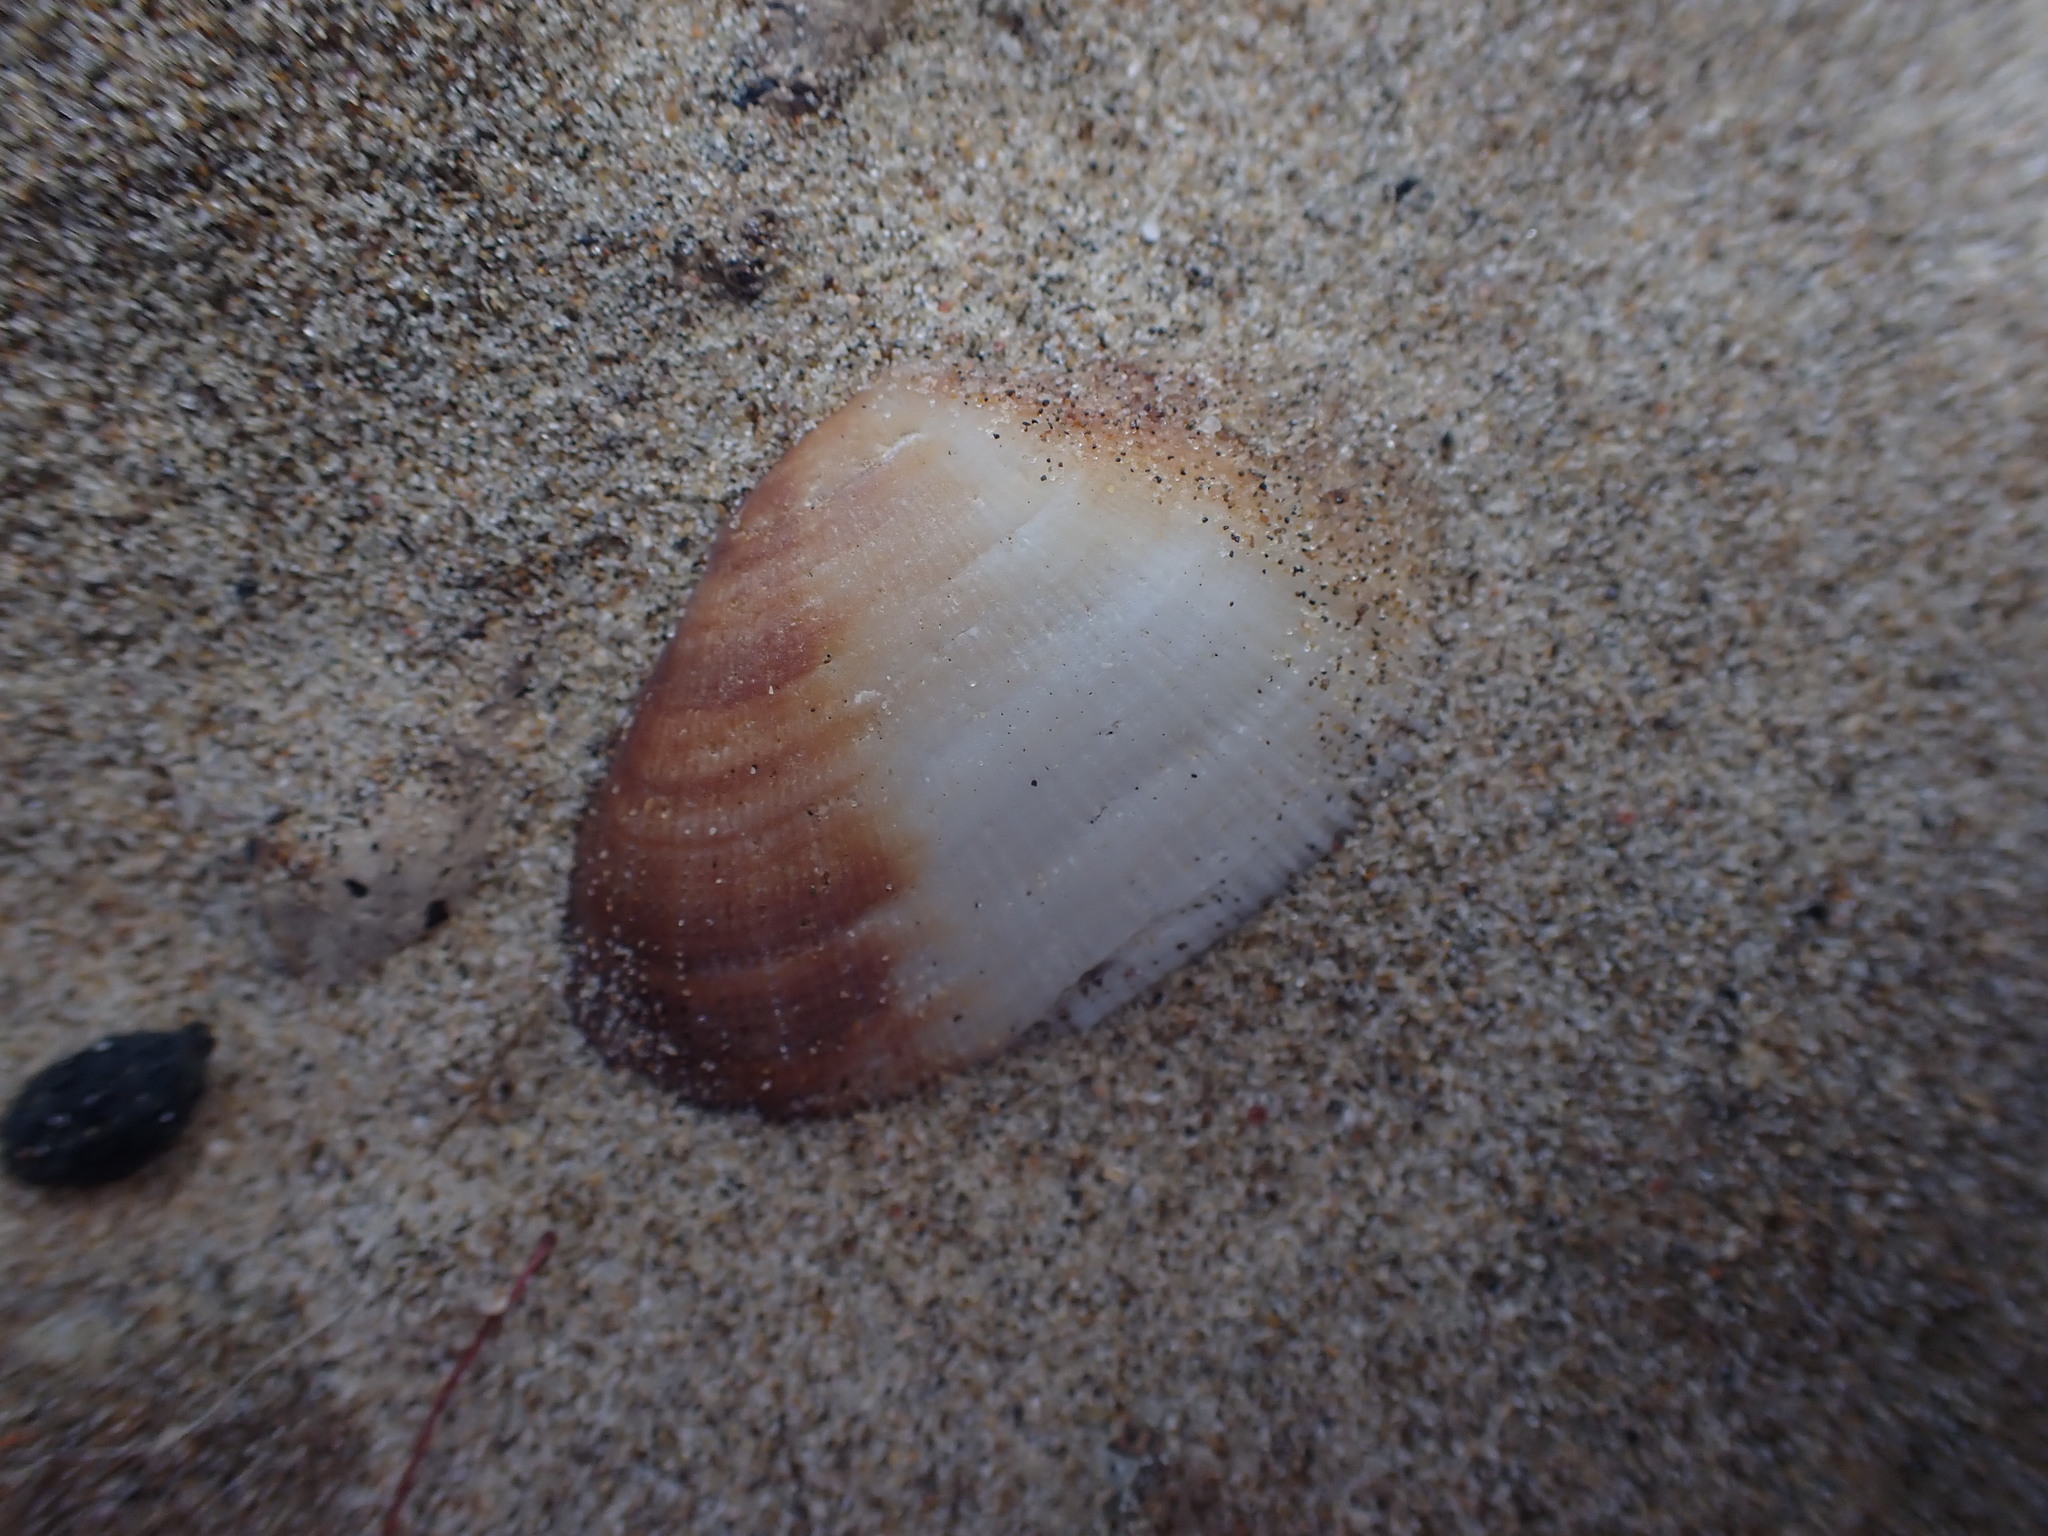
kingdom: Animalia
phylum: Mollusca
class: Bivalvia
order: Arcida
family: Arcidae
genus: Barbatia
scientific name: Barbatia novaezealandiae
